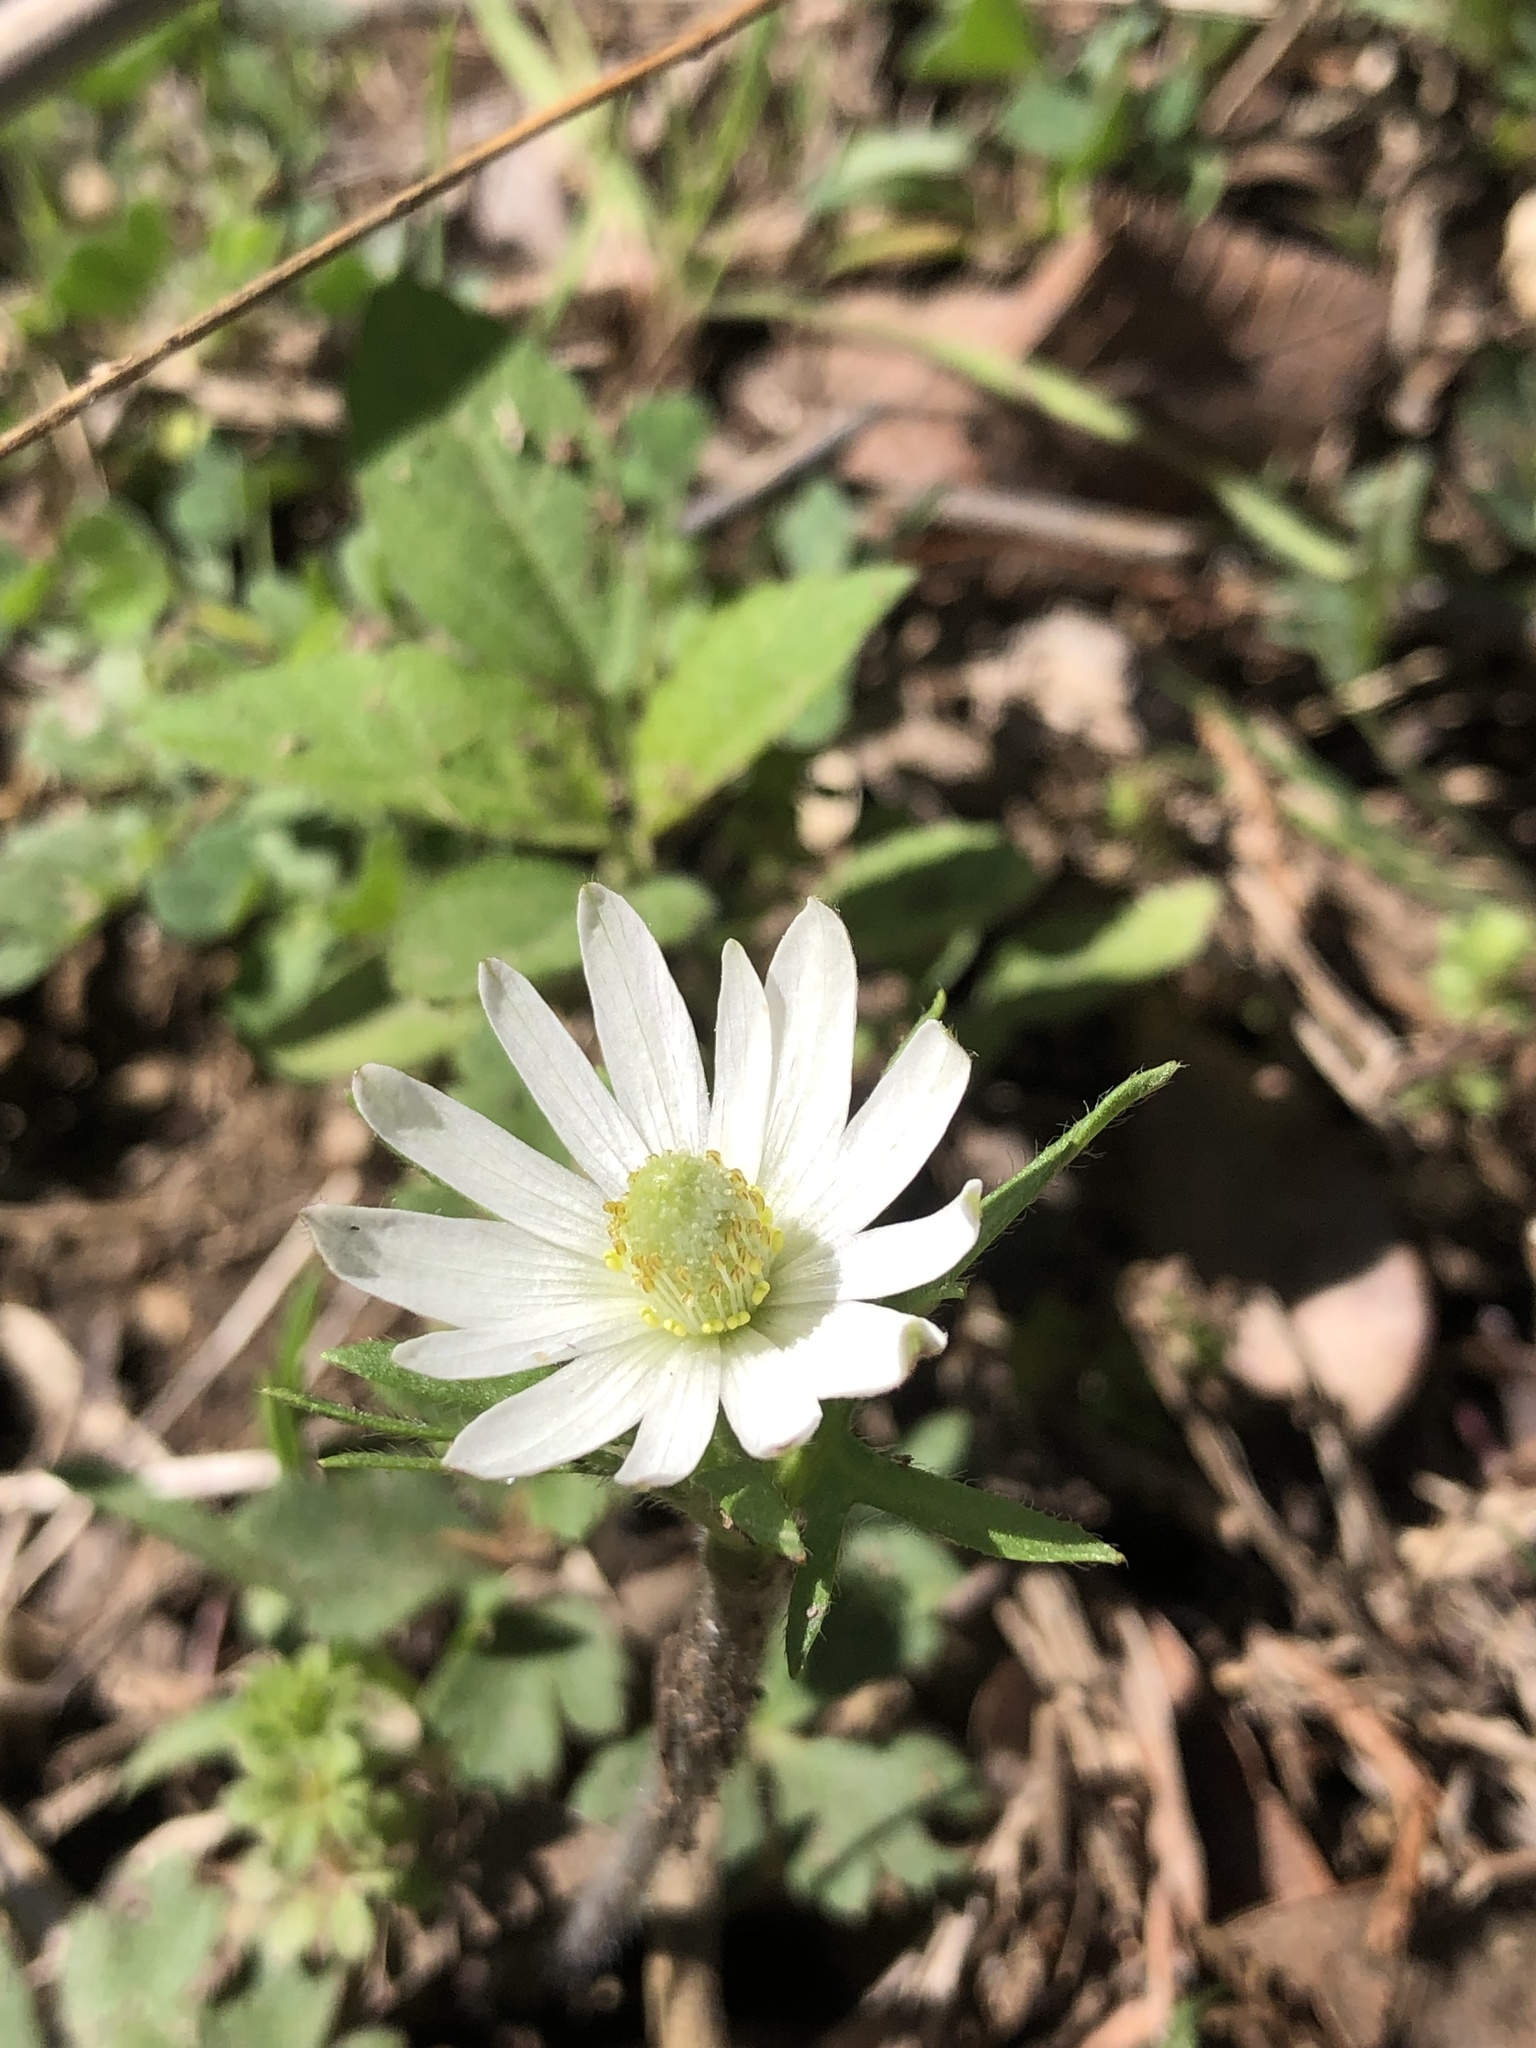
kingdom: Plantae
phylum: Tracheophyta
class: Magnoliopsida
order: Ranunculales
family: Ranunculaceae
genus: Anemone
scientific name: Anemone berlandieri
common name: Ten-petal anemone
